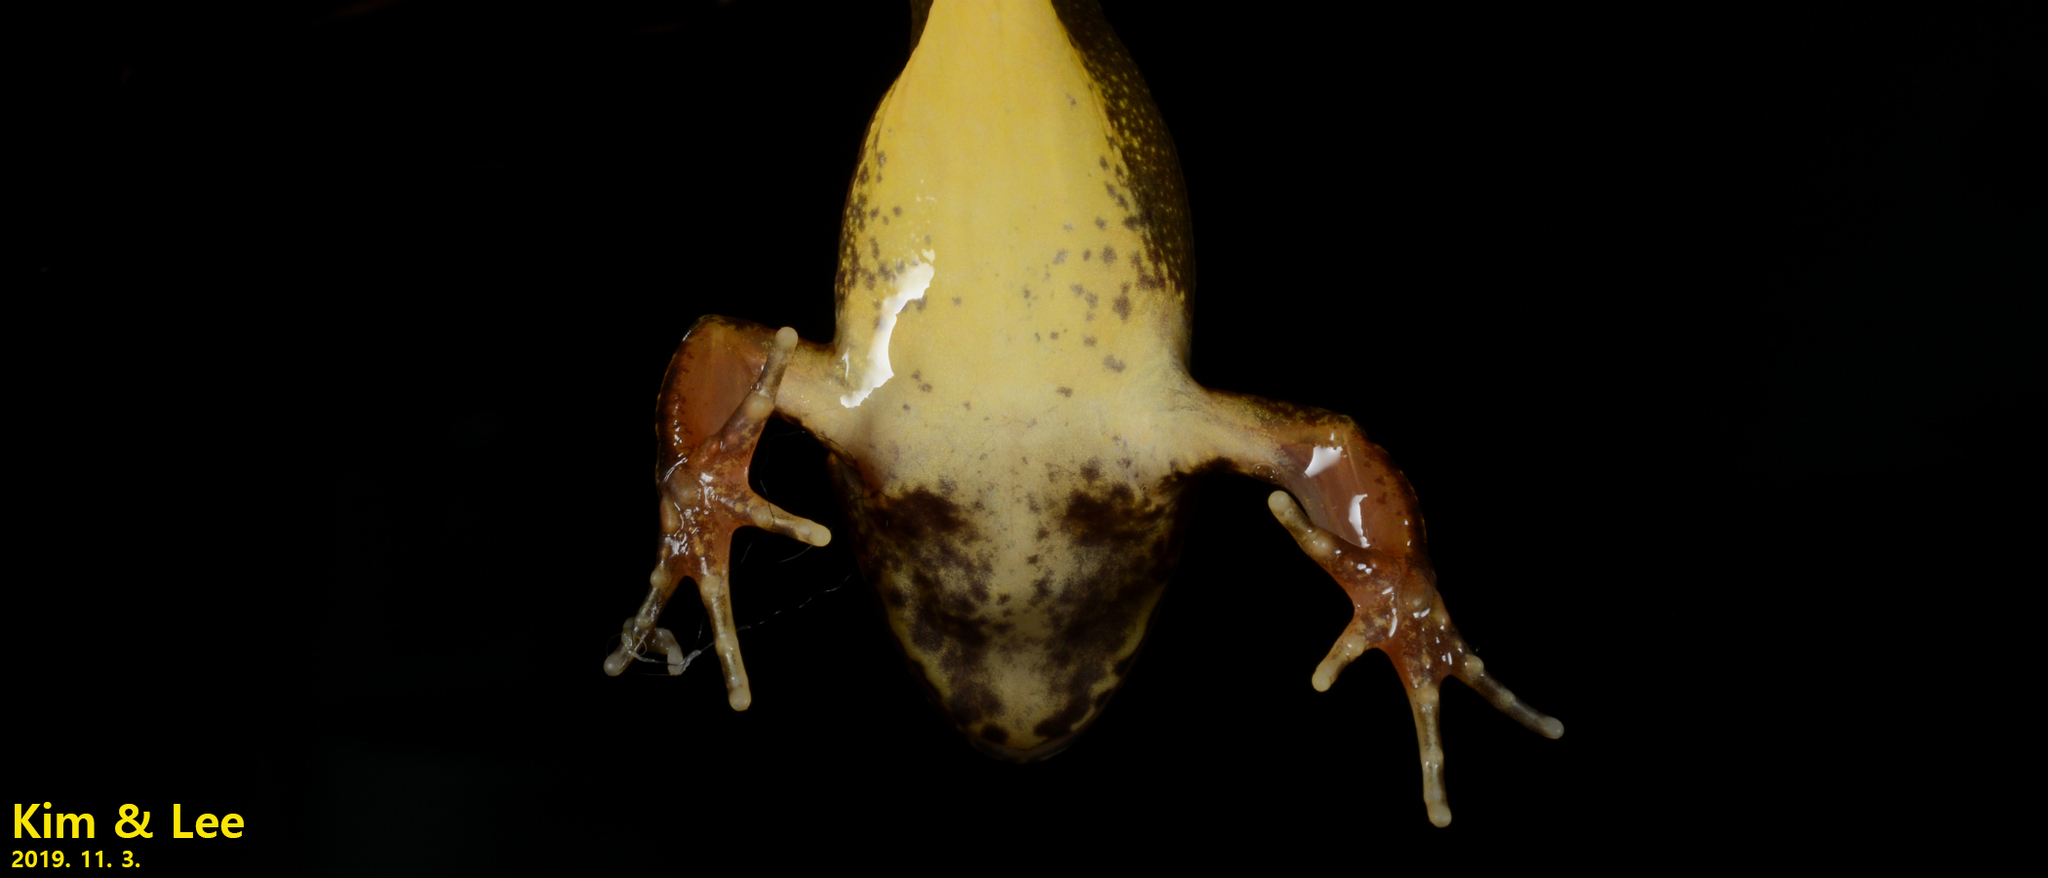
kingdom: Animalia
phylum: Chordata
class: Amphibia
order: Anura
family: Ranidae
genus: Rana
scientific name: Rana huanrenensis
